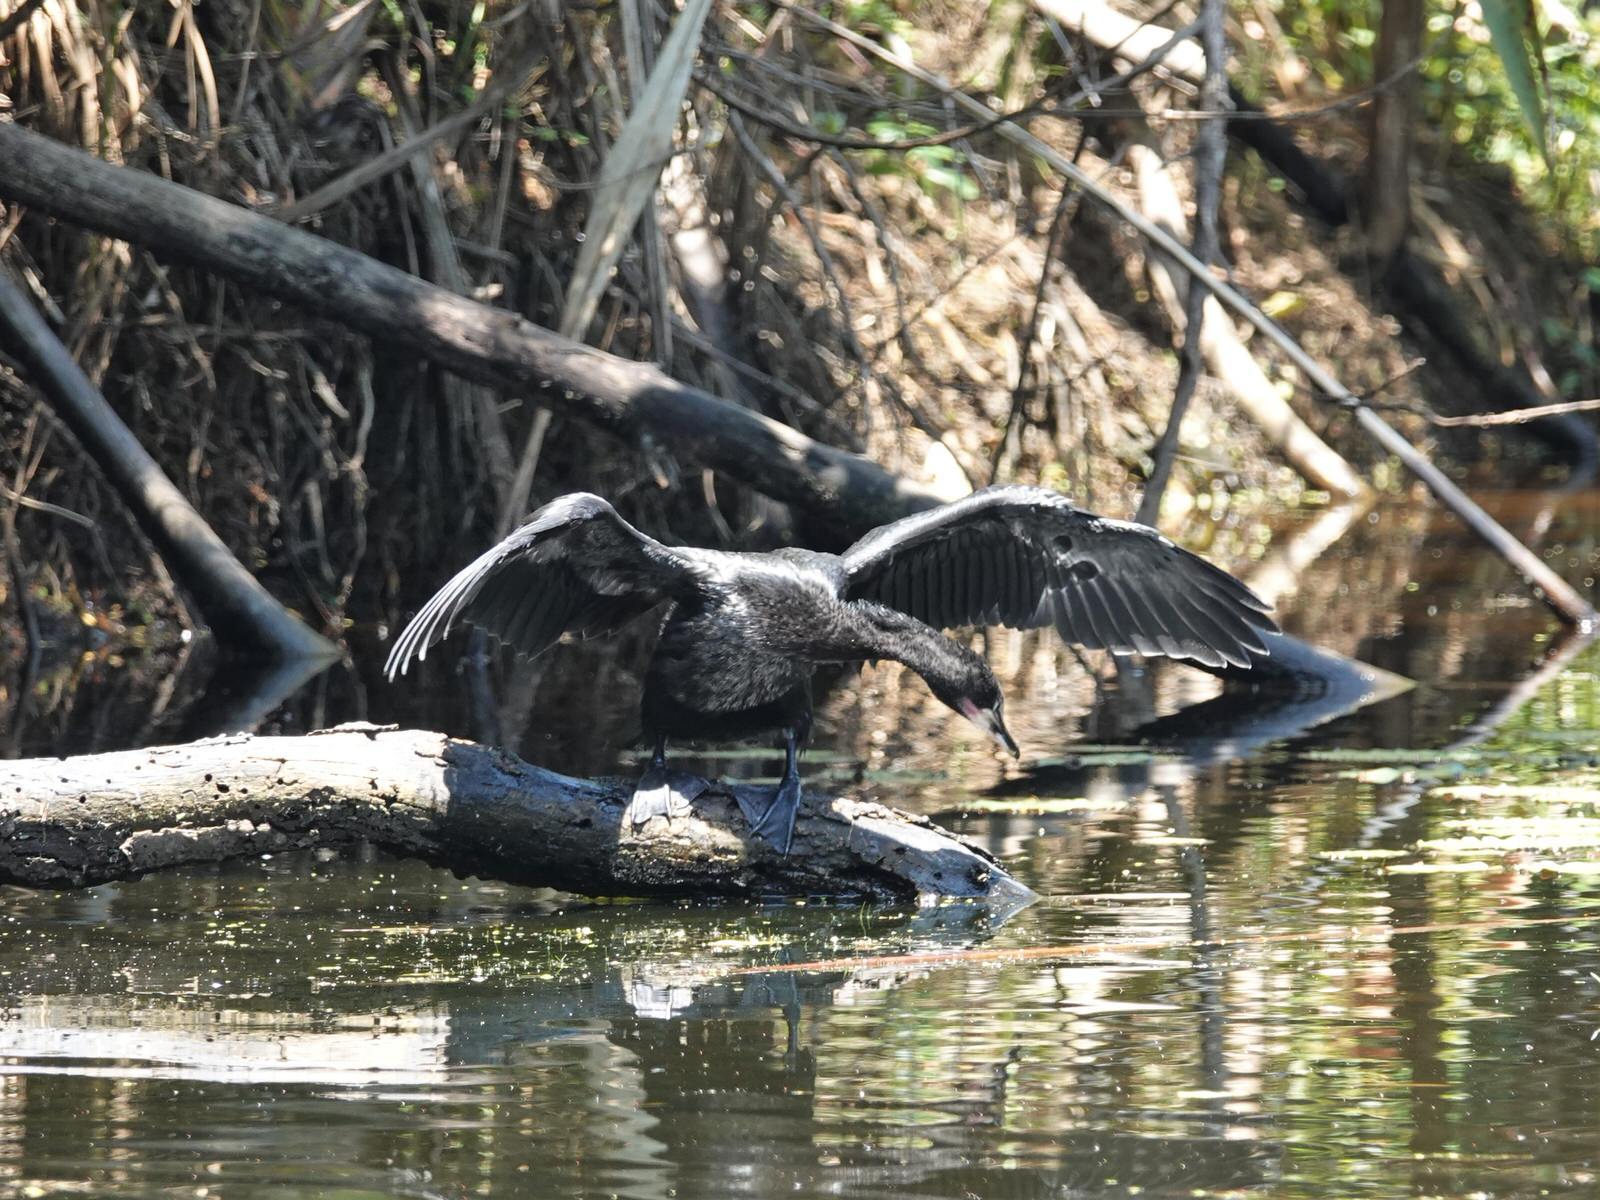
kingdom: Animalia
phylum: Chordata
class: Aves
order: Suliformes
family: Phalacrocoracidae
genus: Microcarbo
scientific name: Microcarbo melanoleucos
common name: Little pied cormorant
